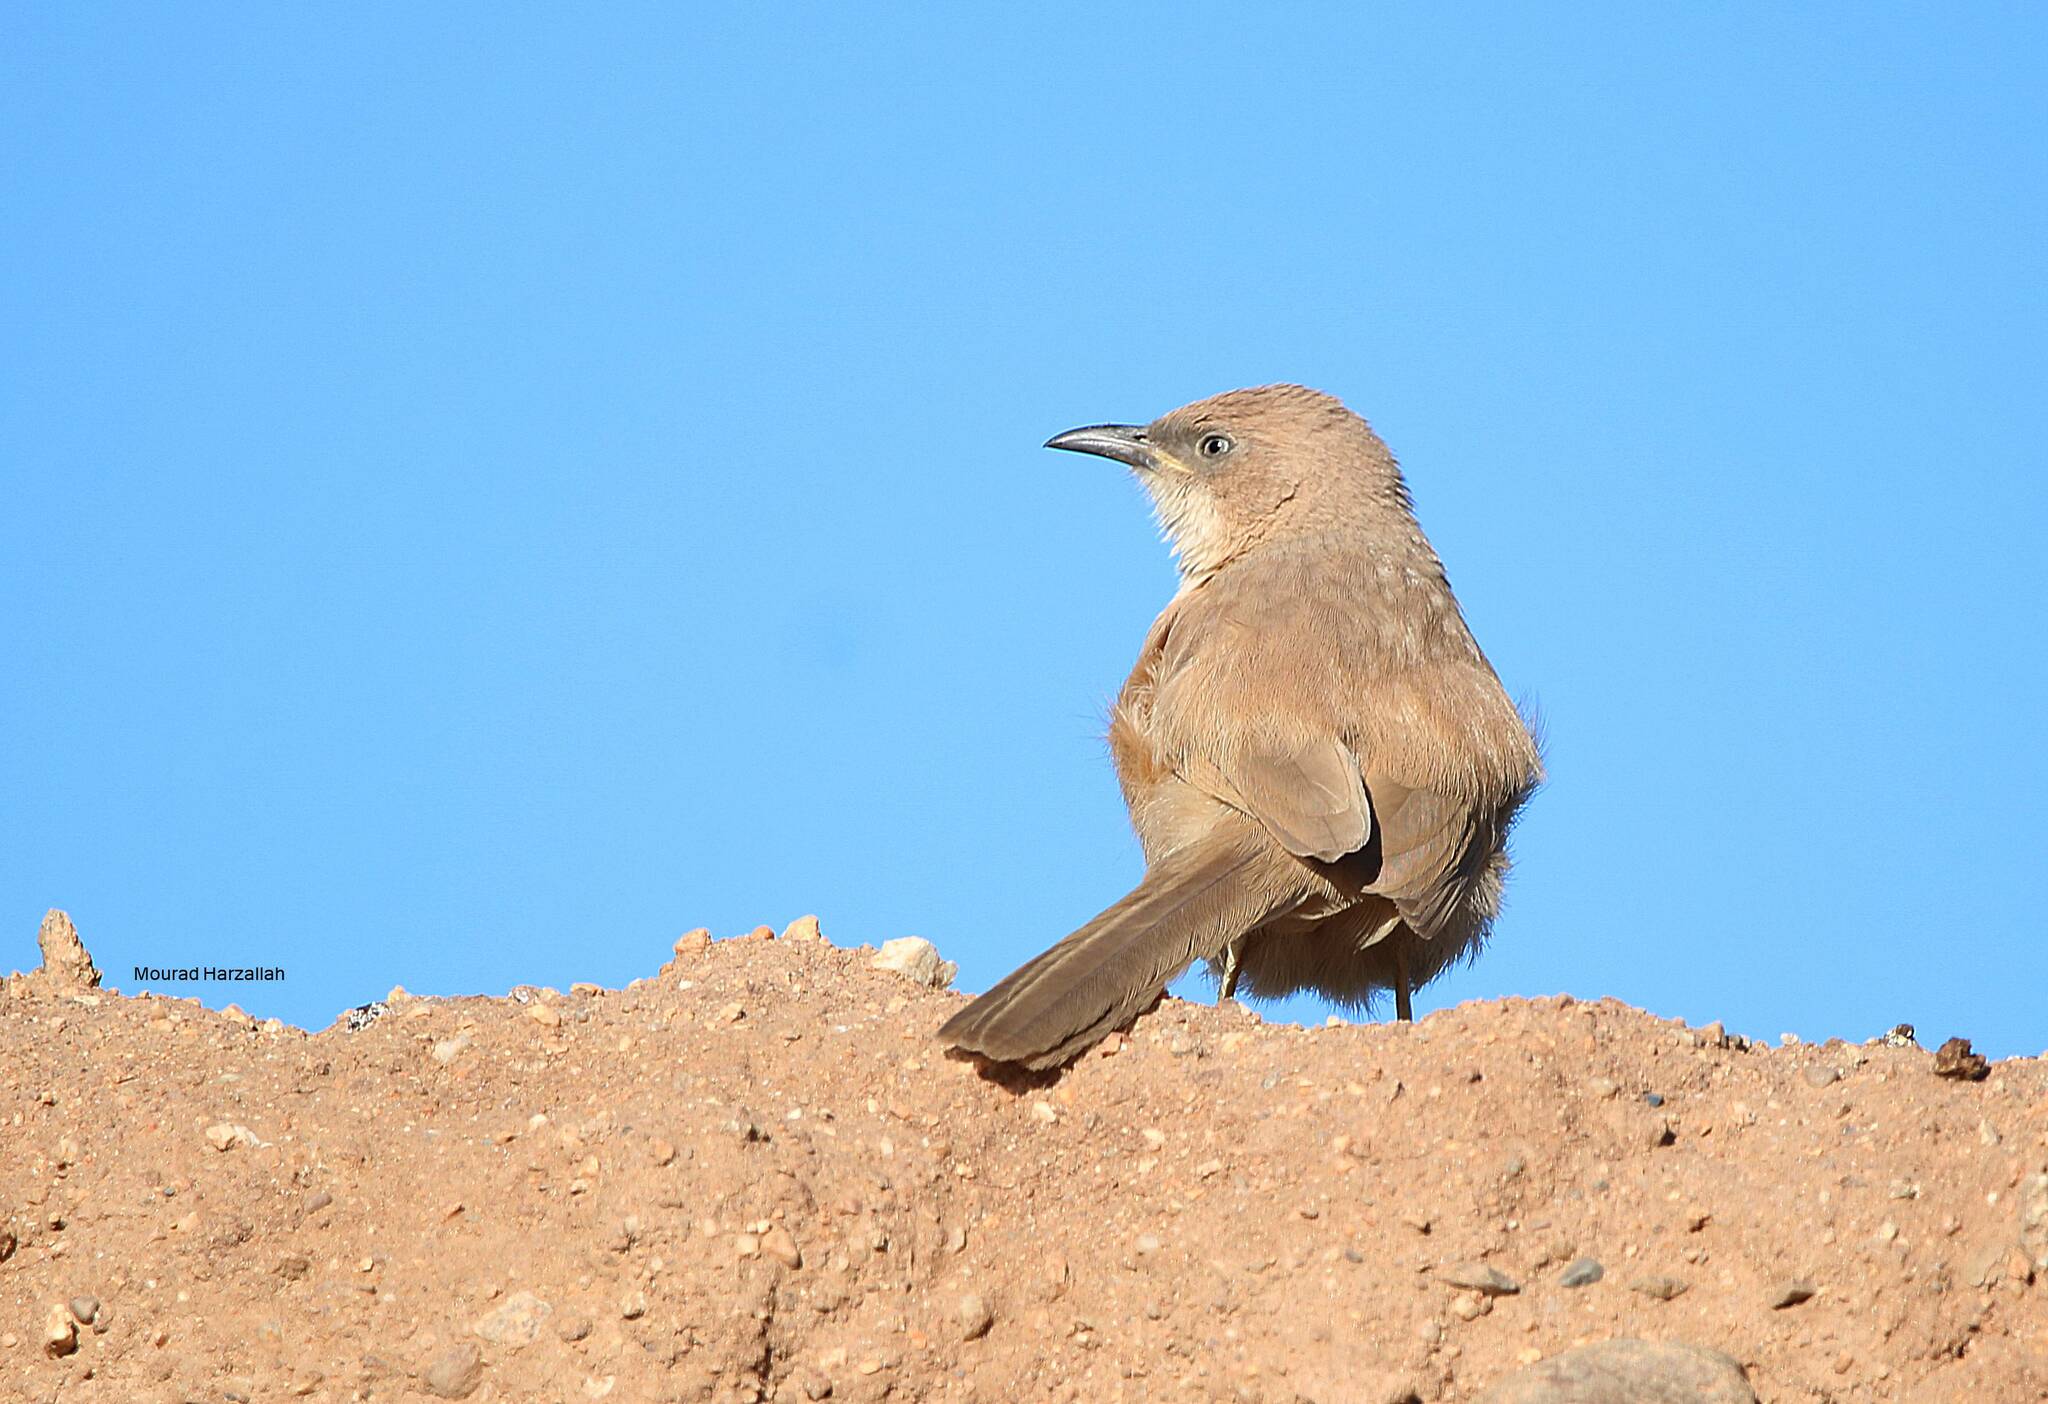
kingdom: Animalia
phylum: Chordata
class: Aves
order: Passeriformes
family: Leiothrichidae
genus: Turdoides
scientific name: Turdoides fulva
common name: Fulvous babbler
